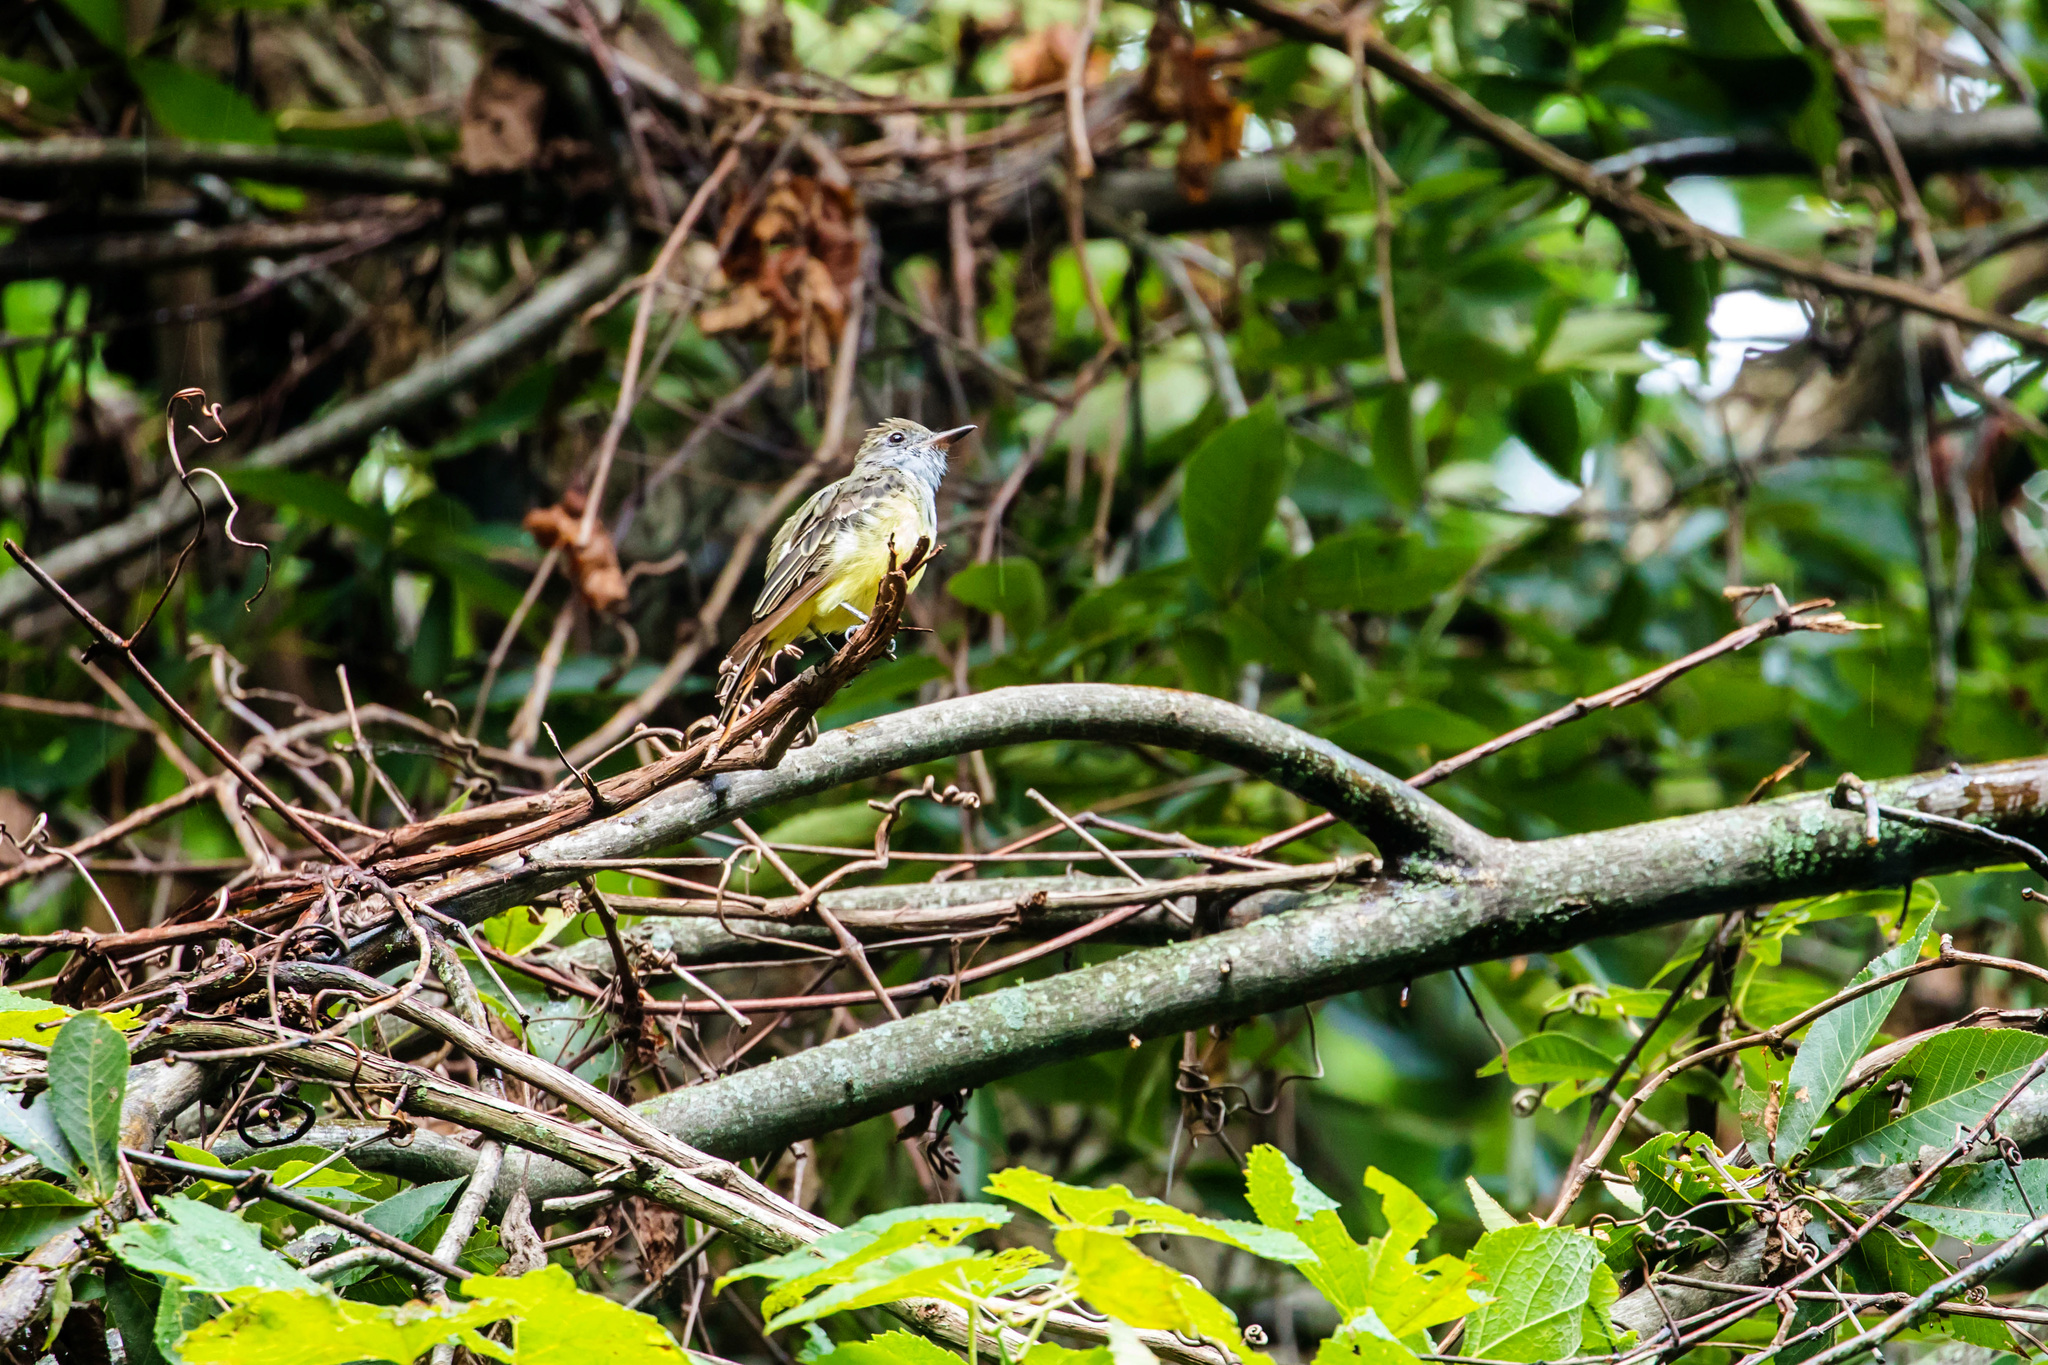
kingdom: Animalia
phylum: Chordata
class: Aves
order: Passeriformes
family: Tyrannidae
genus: Myiarchus
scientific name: Myiarchus crinitus
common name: Great crested flycatcher
